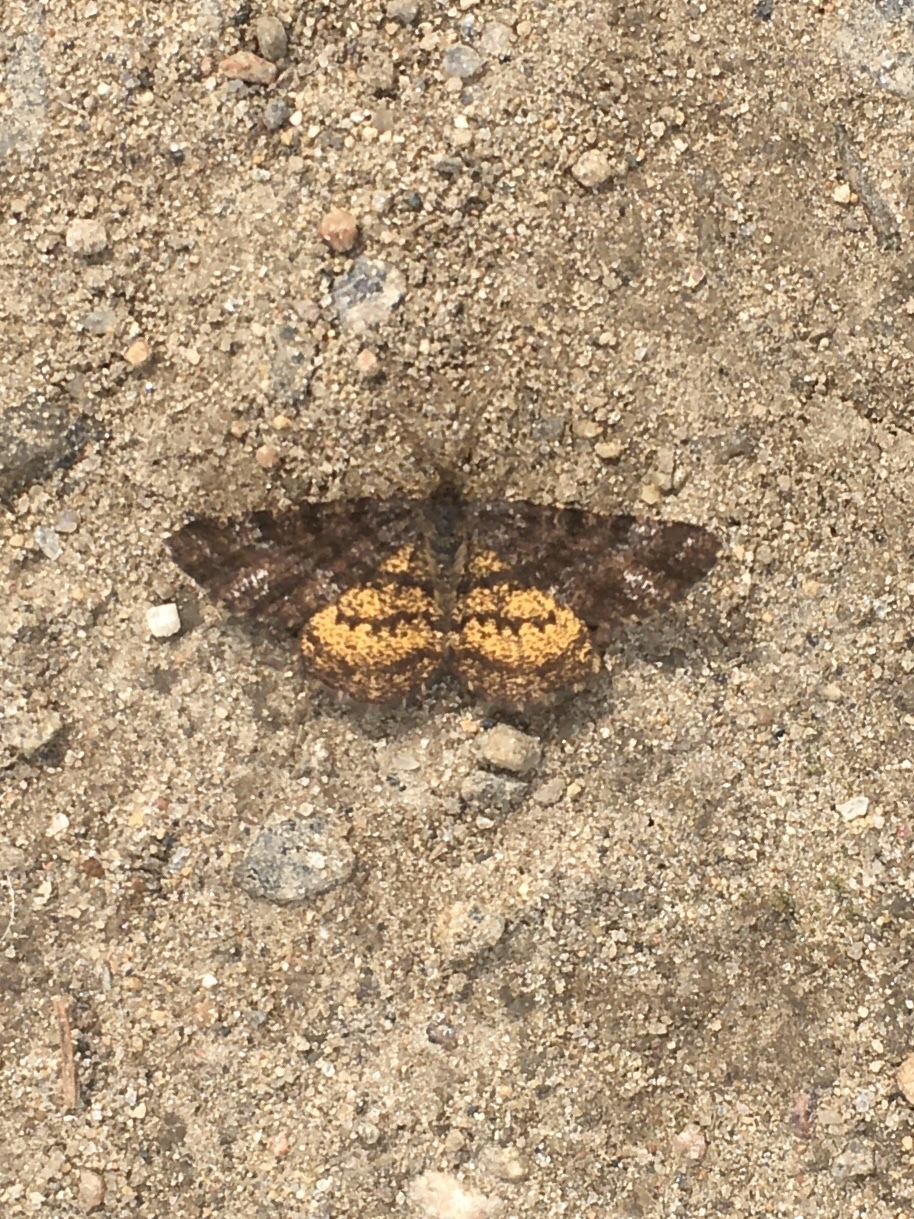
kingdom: Animalia
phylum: Arthropoda
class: Insecta
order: Lepidoptera
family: Geometridae
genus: Ematurga
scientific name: Ematurga amitaria
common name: Cranberry spanworm moth
